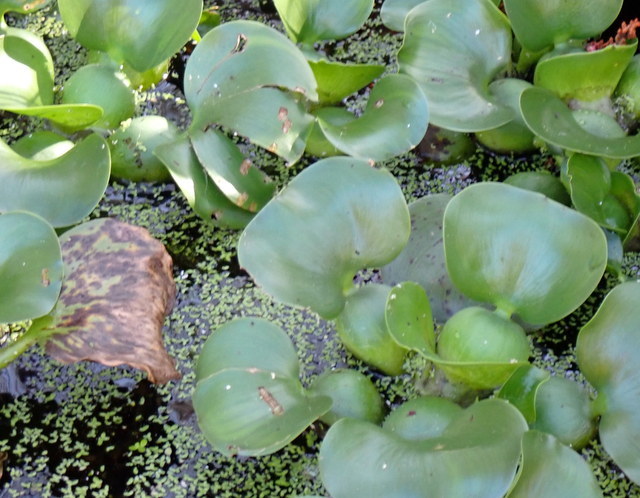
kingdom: Plantae
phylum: Tracheophyta
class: Liliopsida
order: Commelinales
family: Pontederiaceae
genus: Pontederia
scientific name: Pontederia crassipes
